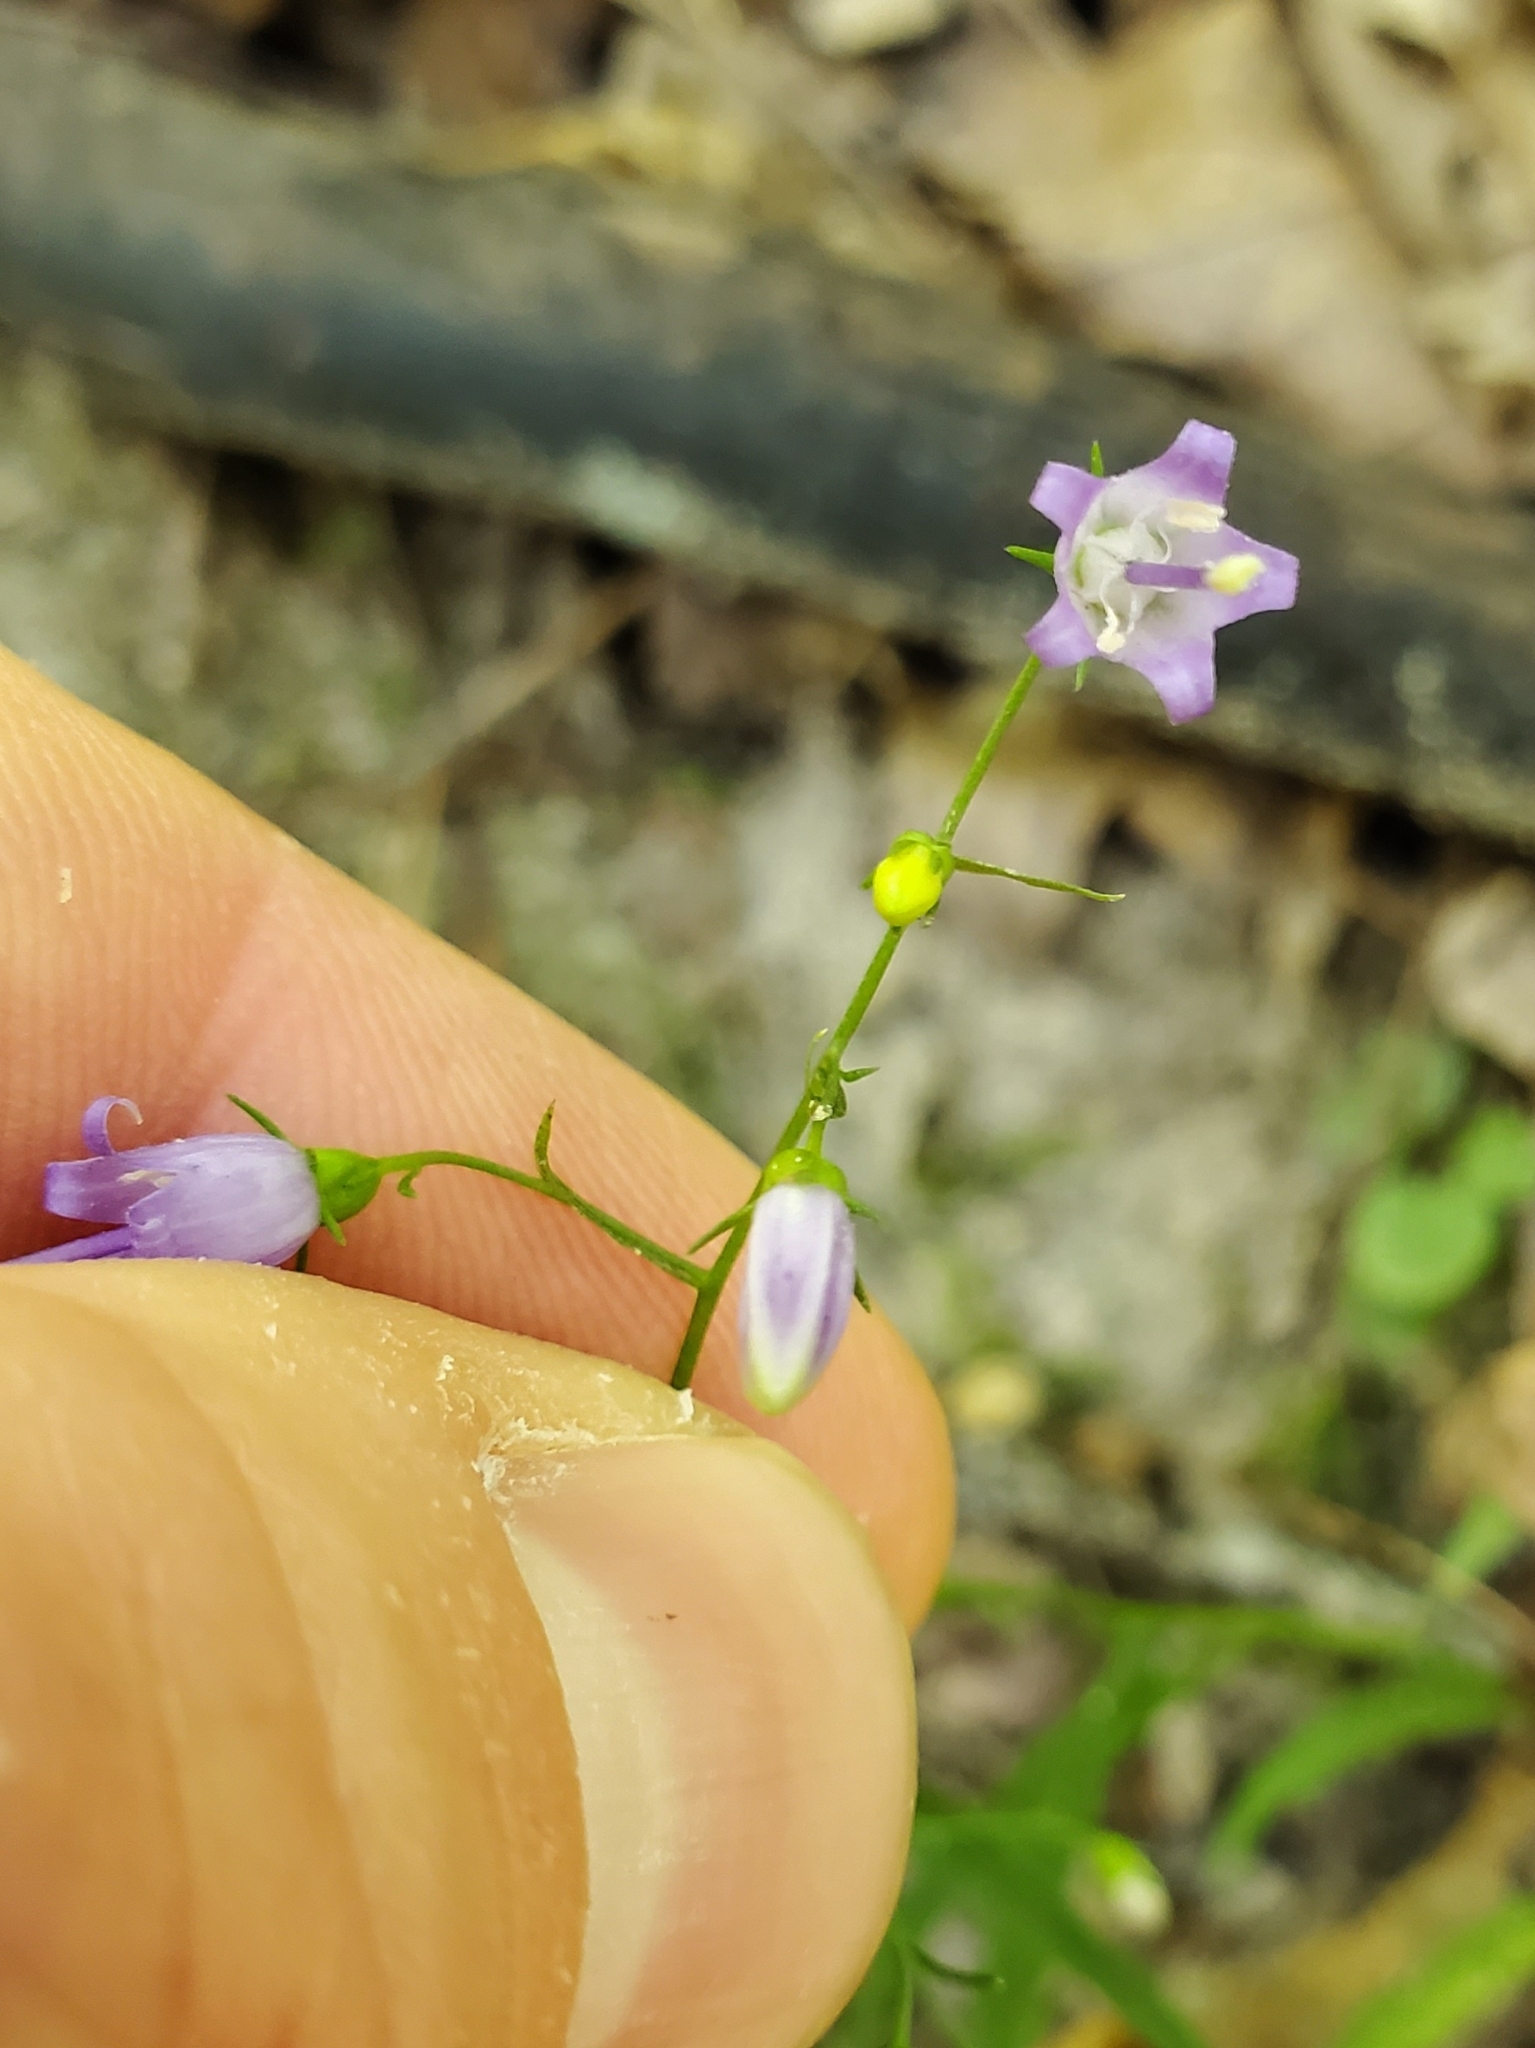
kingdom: Plantae
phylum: Tracheophyta
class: Magnoliopsida
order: Asterales
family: Campanulaceae
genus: Campanula
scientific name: Campanula divaricata
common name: Appalachian bellflower
